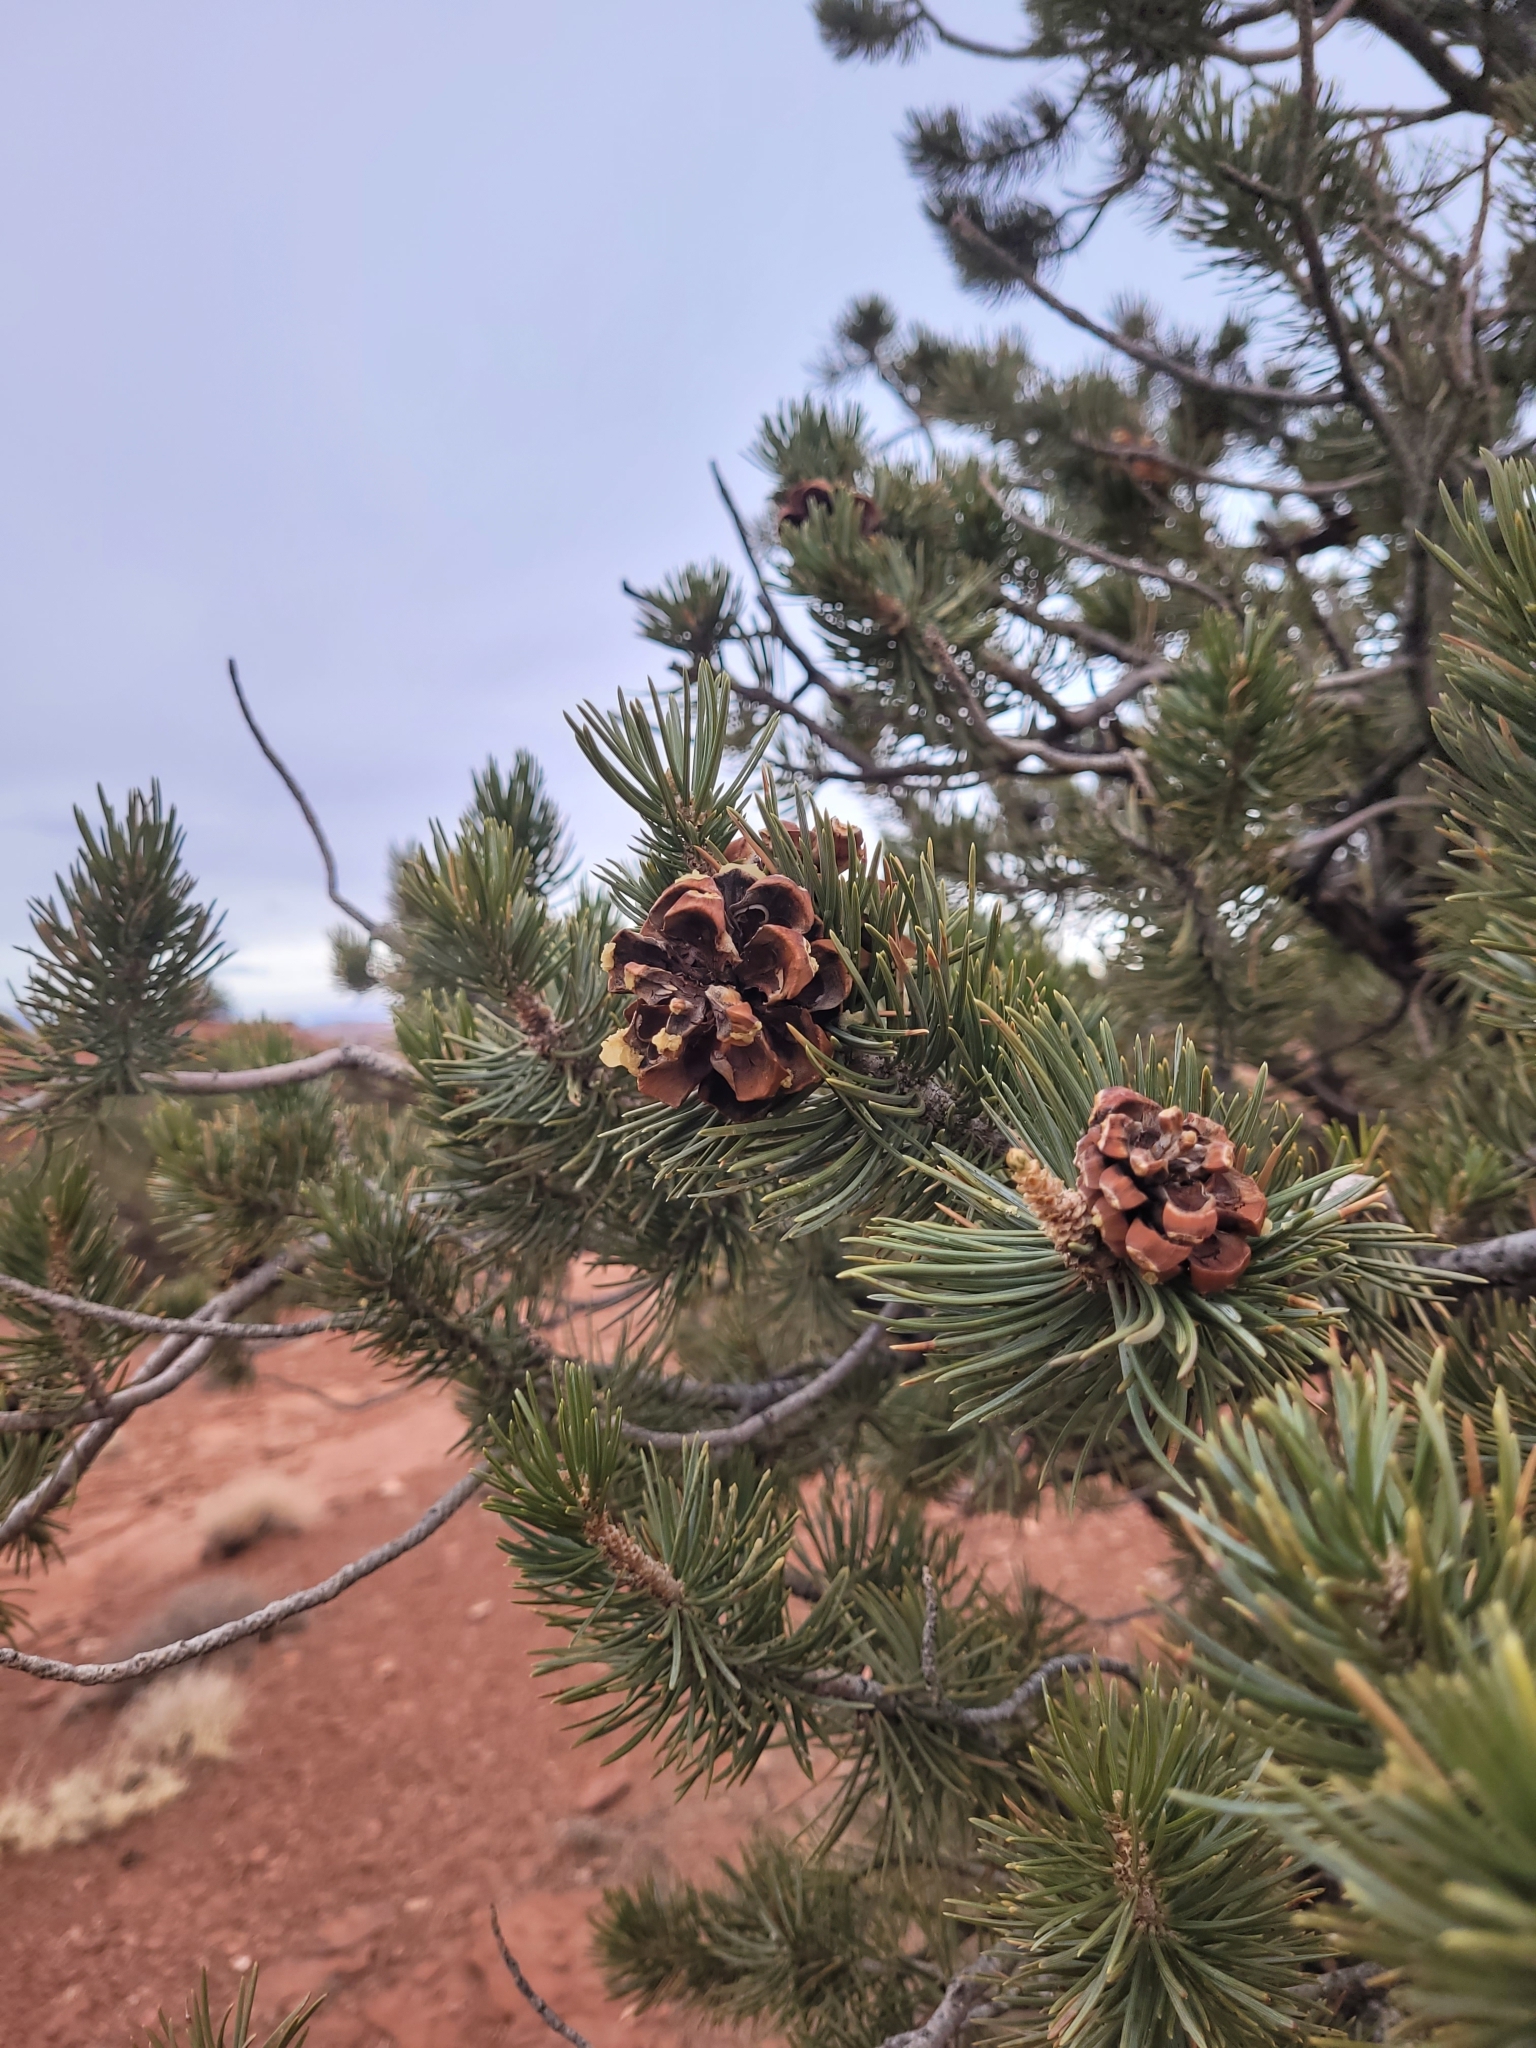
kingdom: Plantae
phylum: Tracheophyta
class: Pinopsida
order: Pinales
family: Pinaceae
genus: Pinus
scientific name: Pinus edulis
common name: Colorado pinyon
